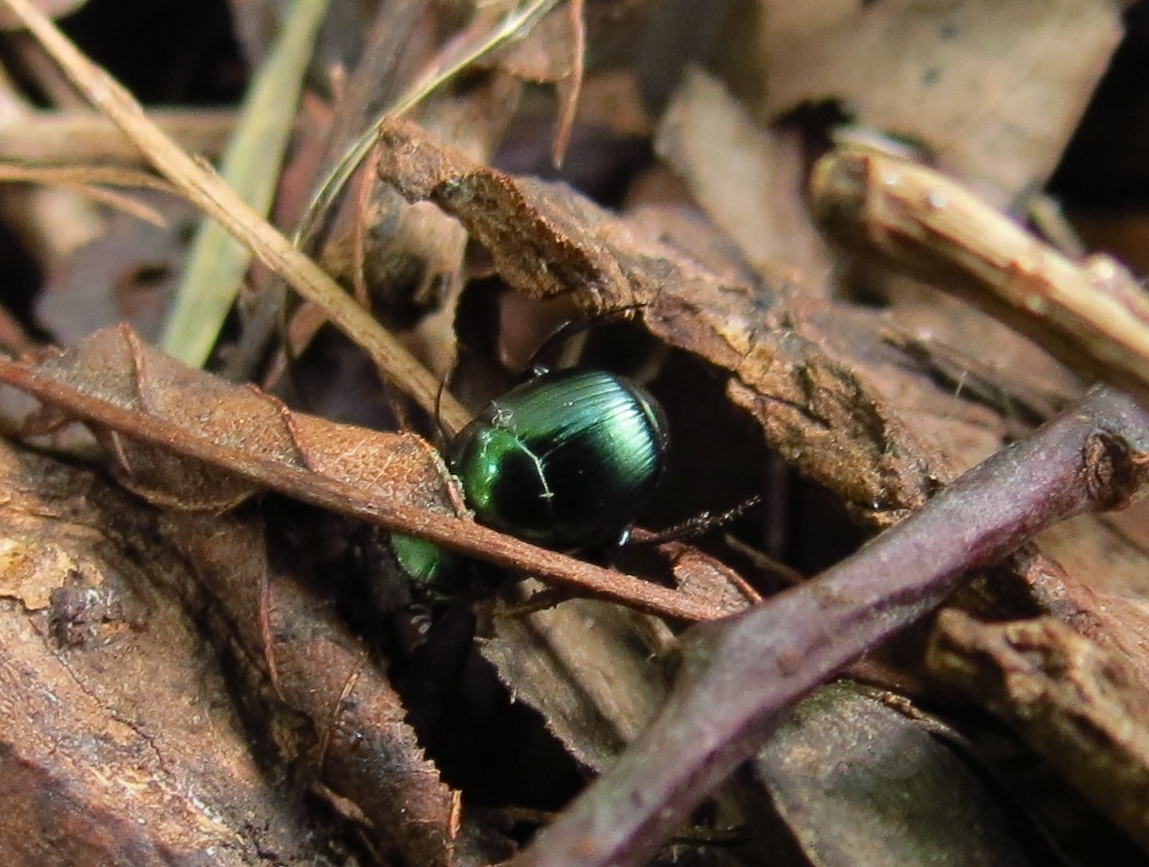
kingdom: Animalia
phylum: Arthropoda
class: Insecta
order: Coleoptera
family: Scarabaeidae
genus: Canthon
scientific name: Canthon viridis
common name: Tumblebug
